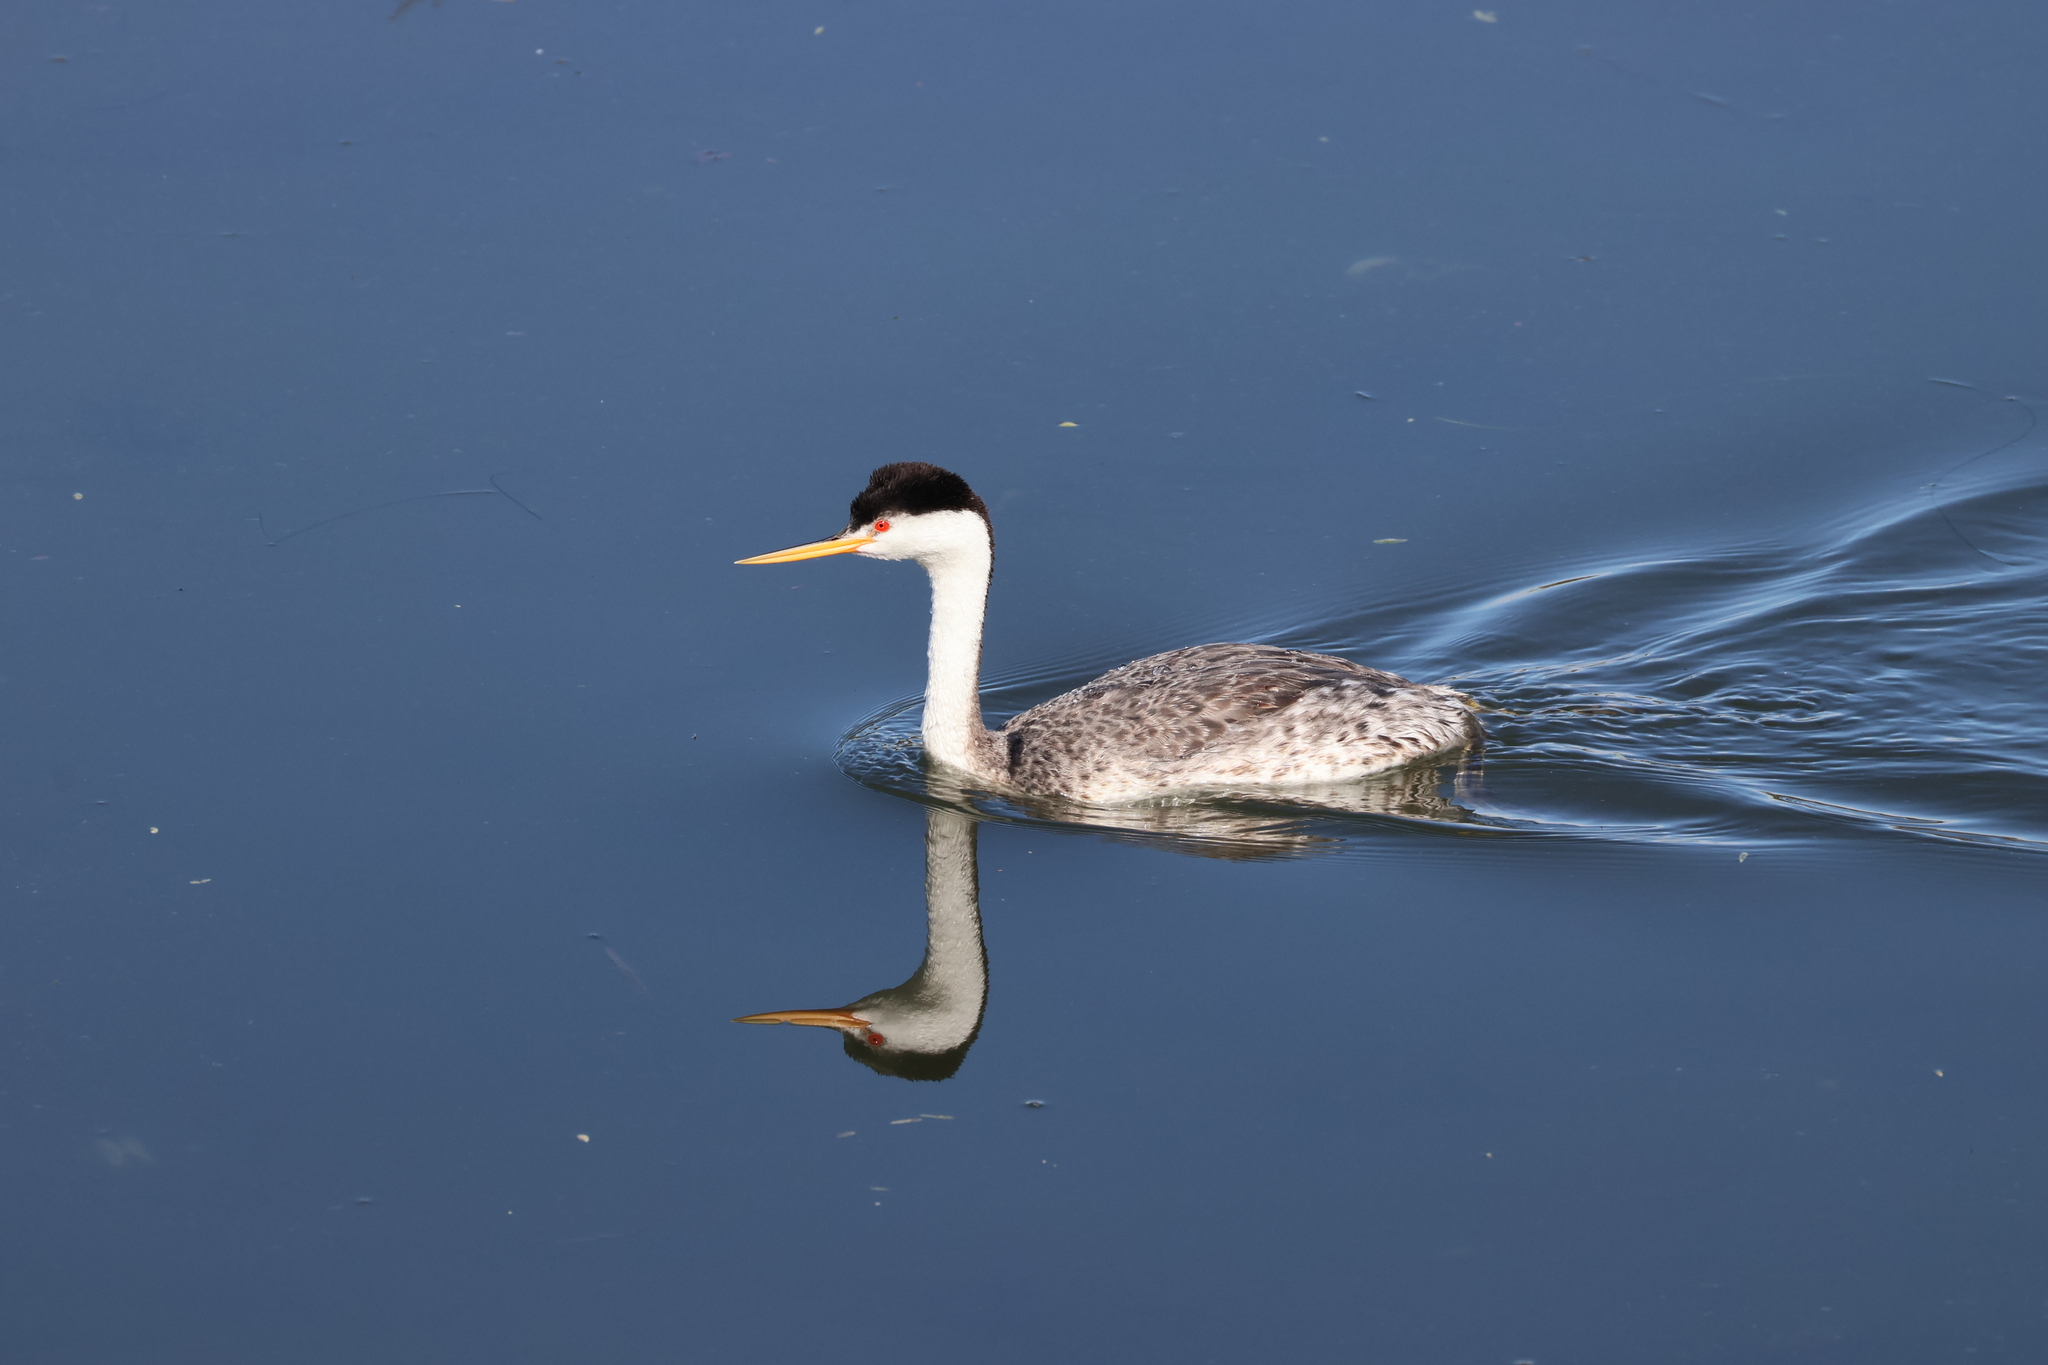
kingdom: Animalia
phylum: Chordata
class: Aves
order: Podicipediformes
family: Podicipedidae
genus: Aechmophorus
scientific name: Aechmophorus clarkii
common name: Clark's grebe
